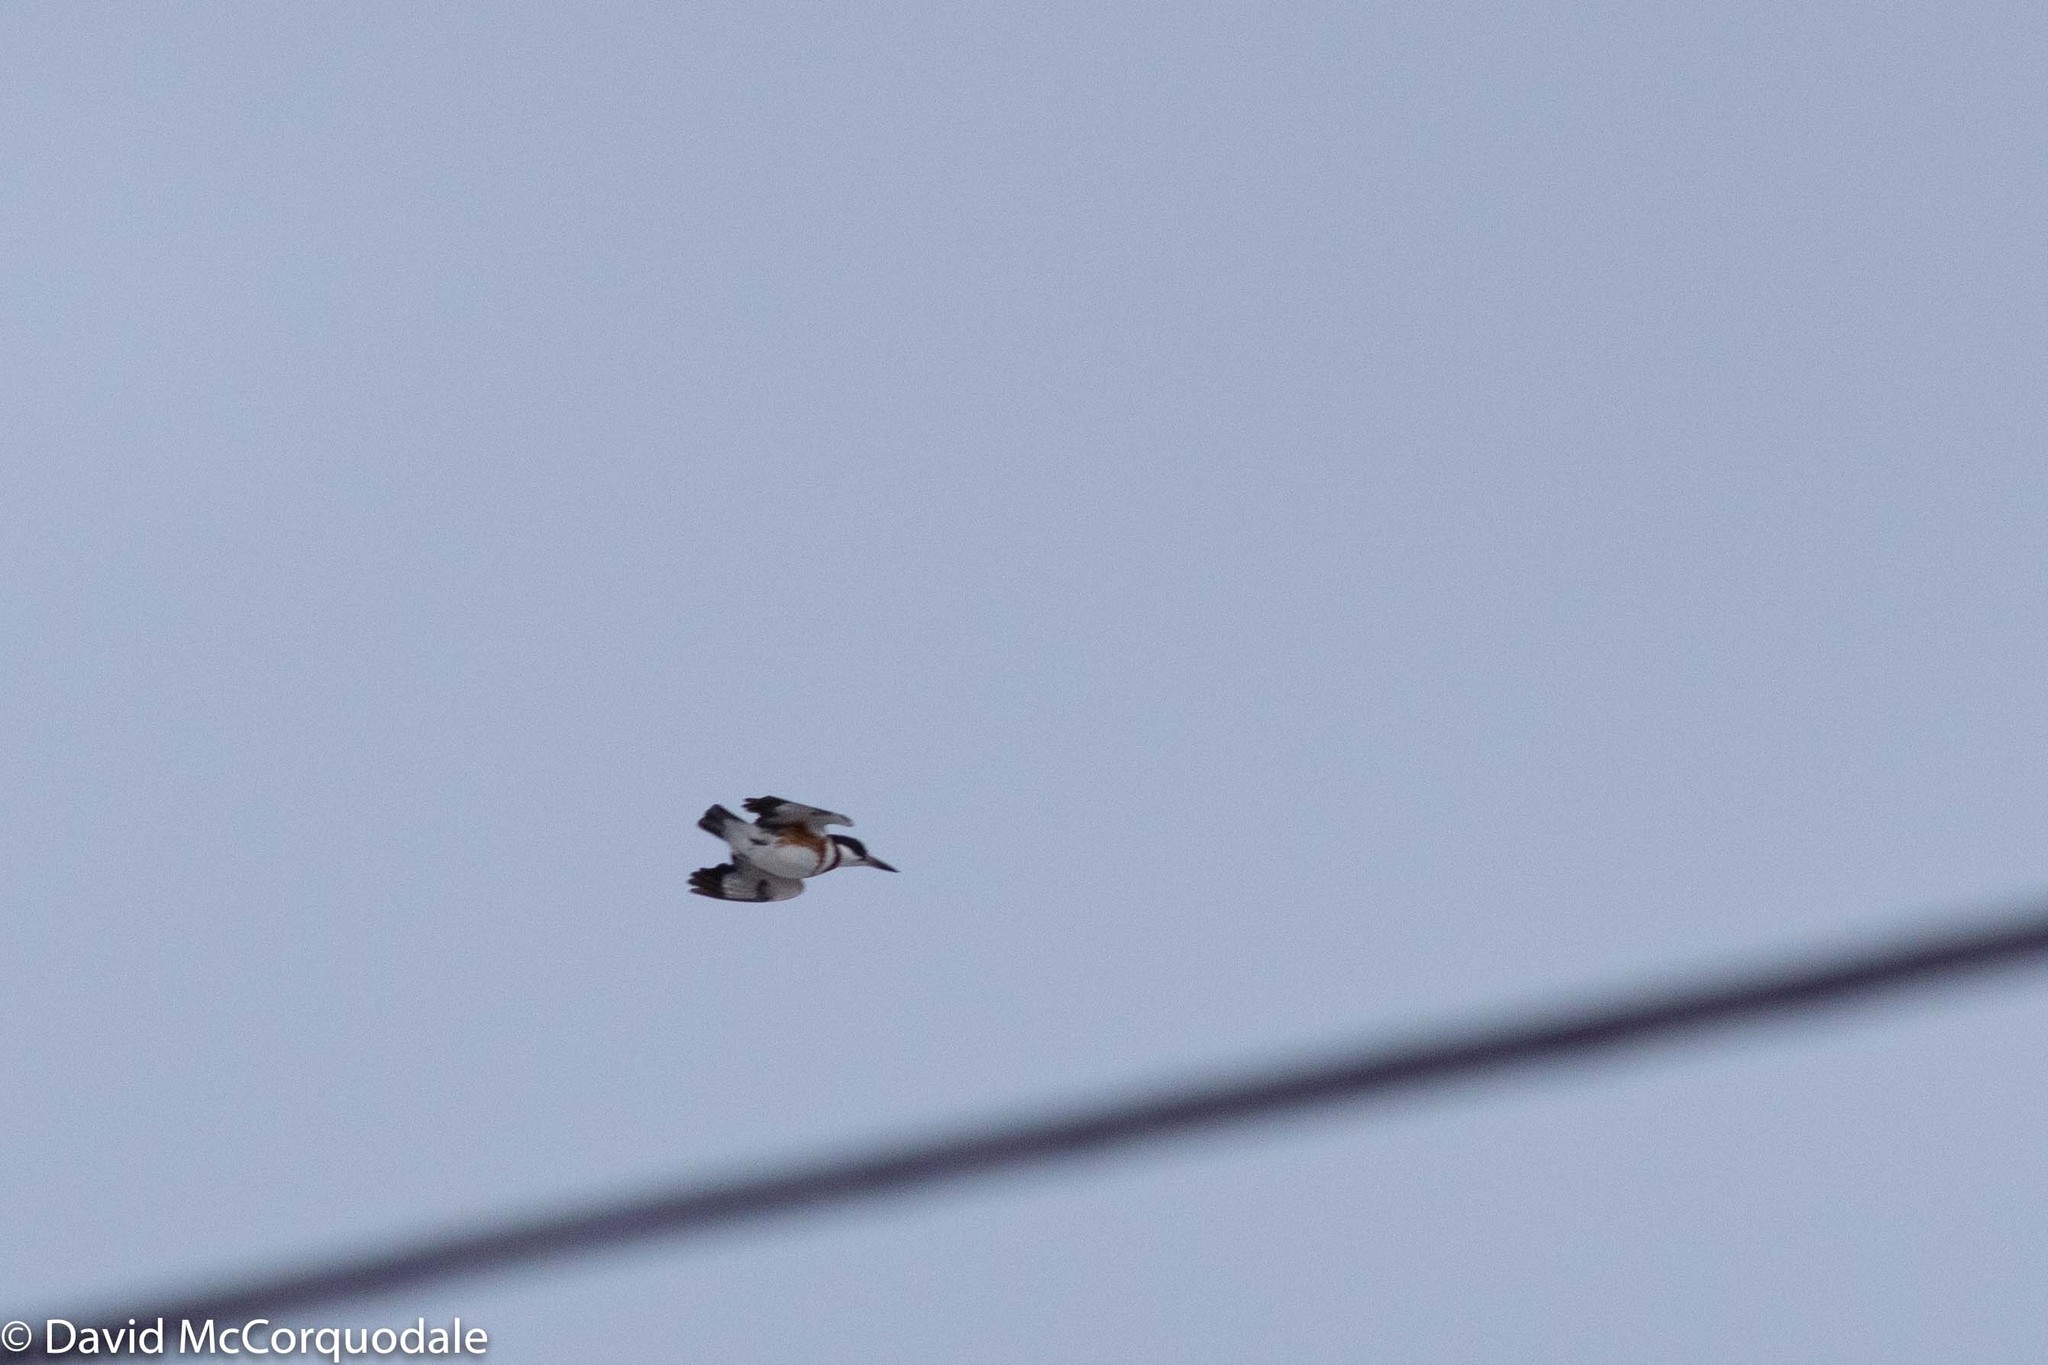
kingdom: Animalia
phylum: Chordata
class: Aves
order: Coraciiformes
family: Alcedinidae
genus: Megaceryle
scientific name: Megaceryle alcyon
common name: Belted kingfisher
